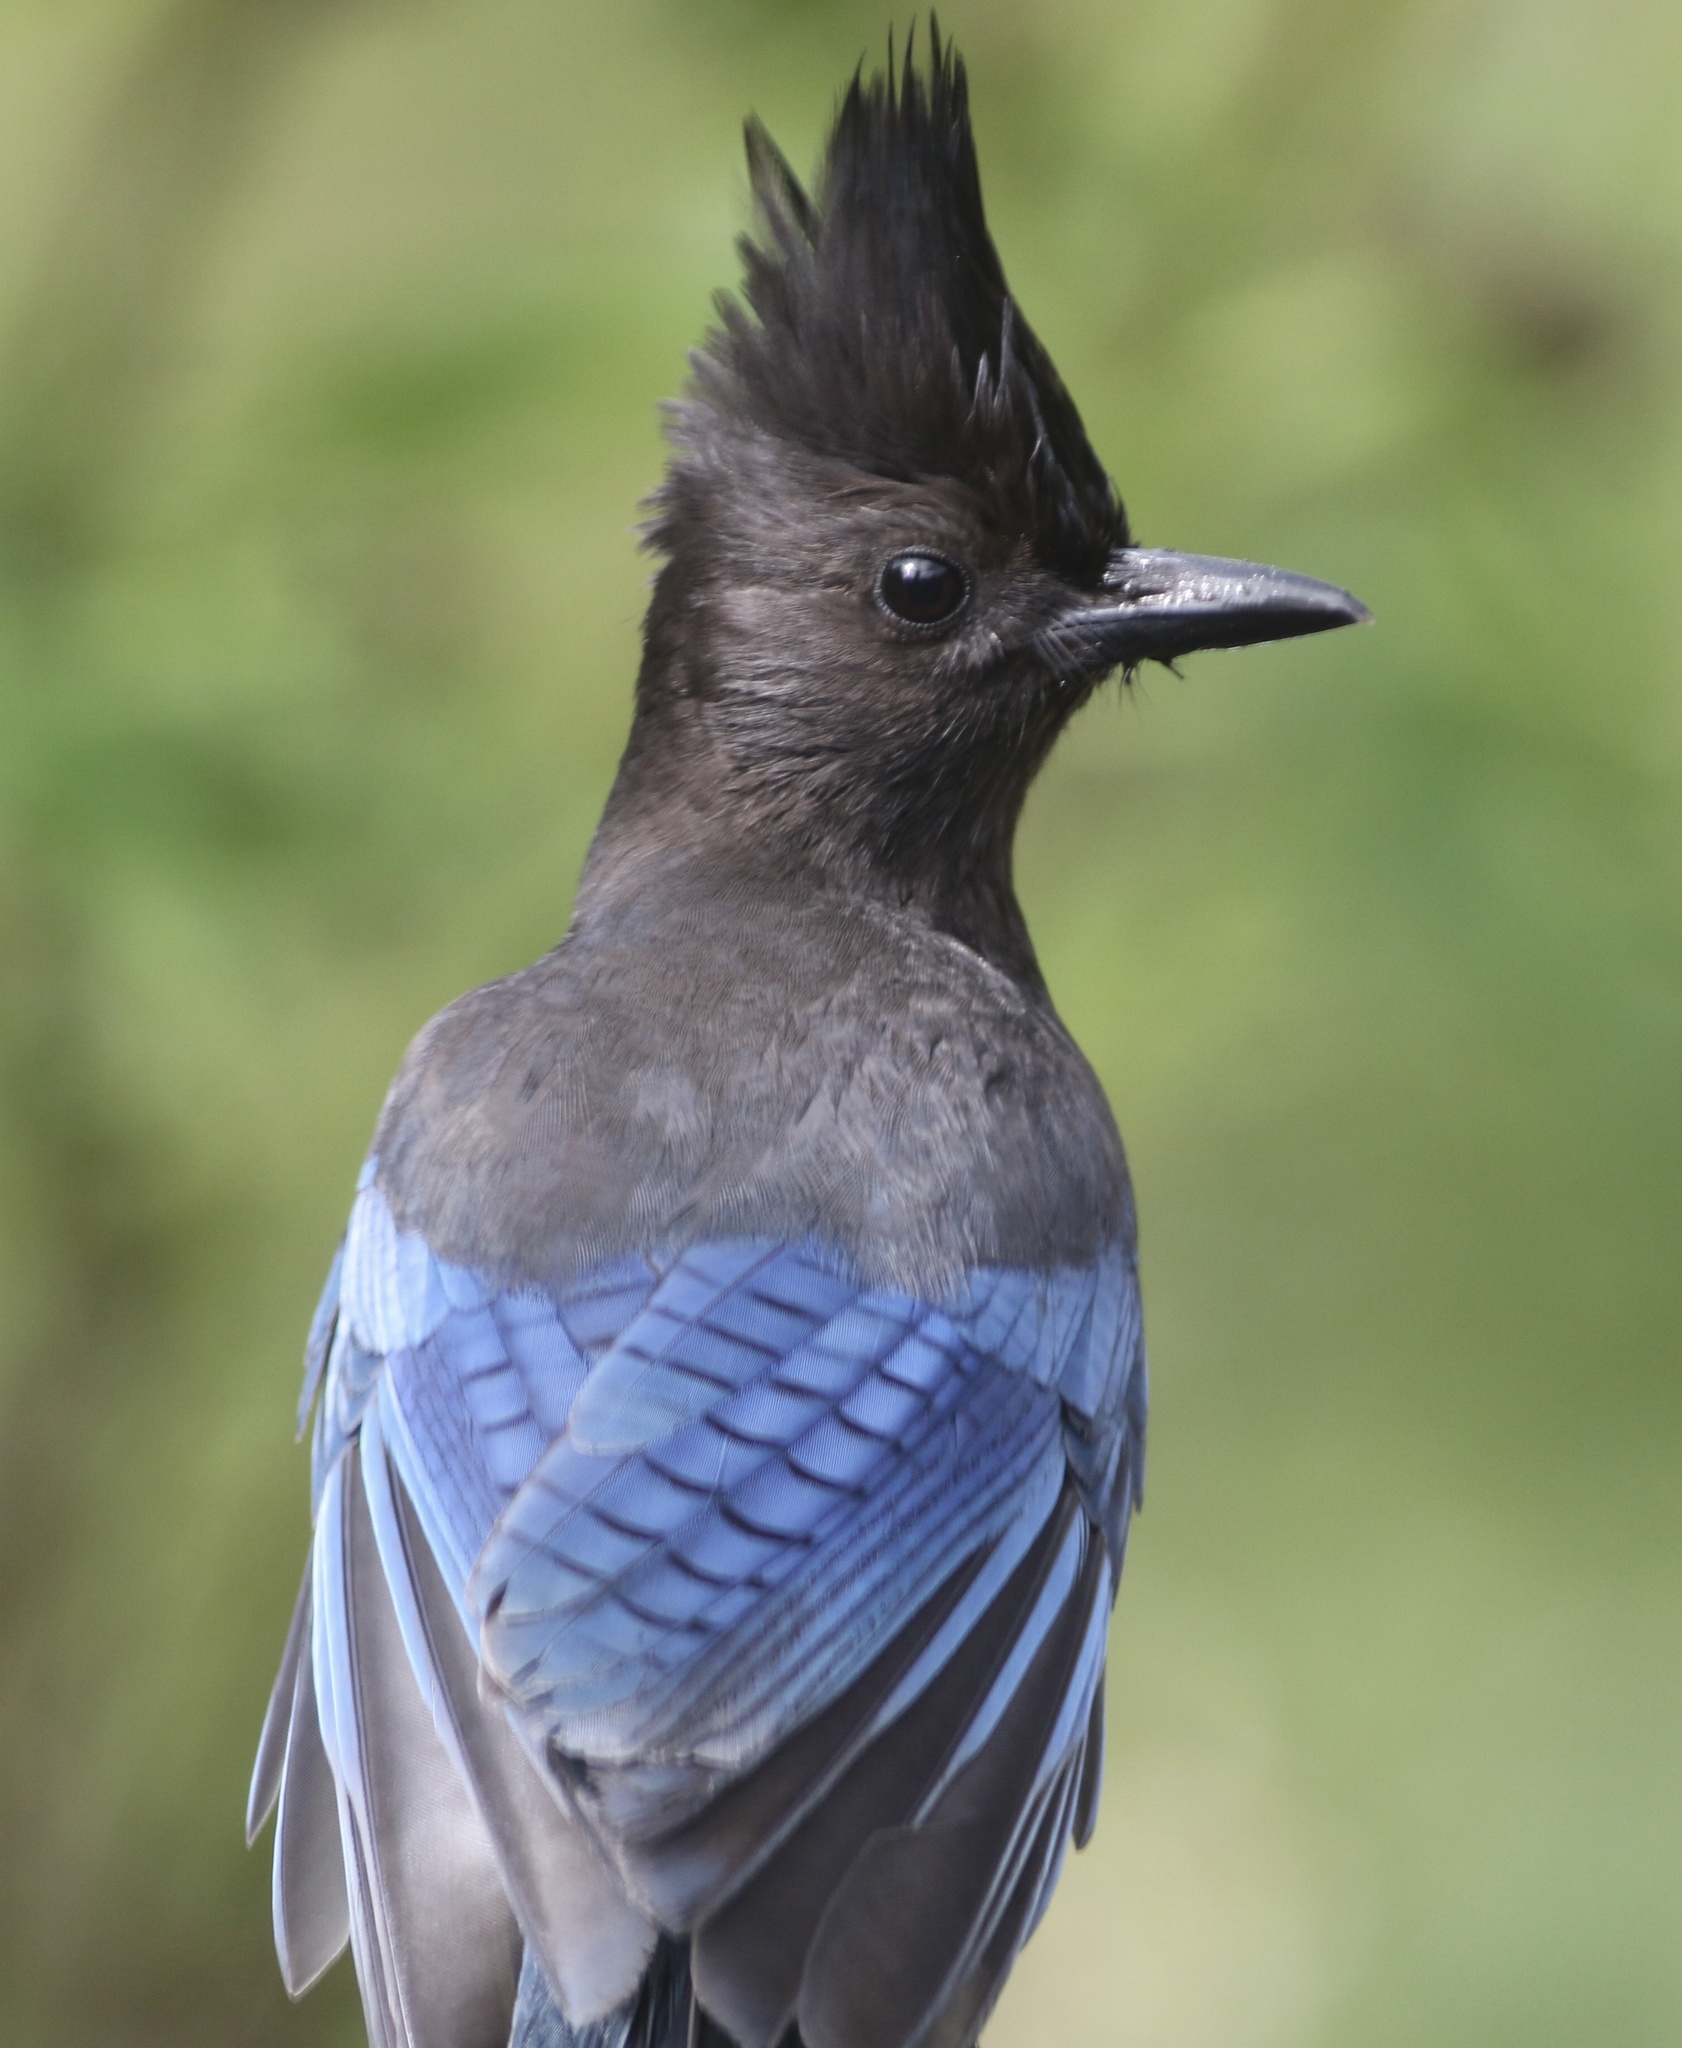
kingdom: Animalia
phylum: Chordata
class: Aves
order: Passeriformes
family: Corvidae
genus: Cyanocitta
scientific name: Cyanocitta stelleri
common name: Steller's jay
